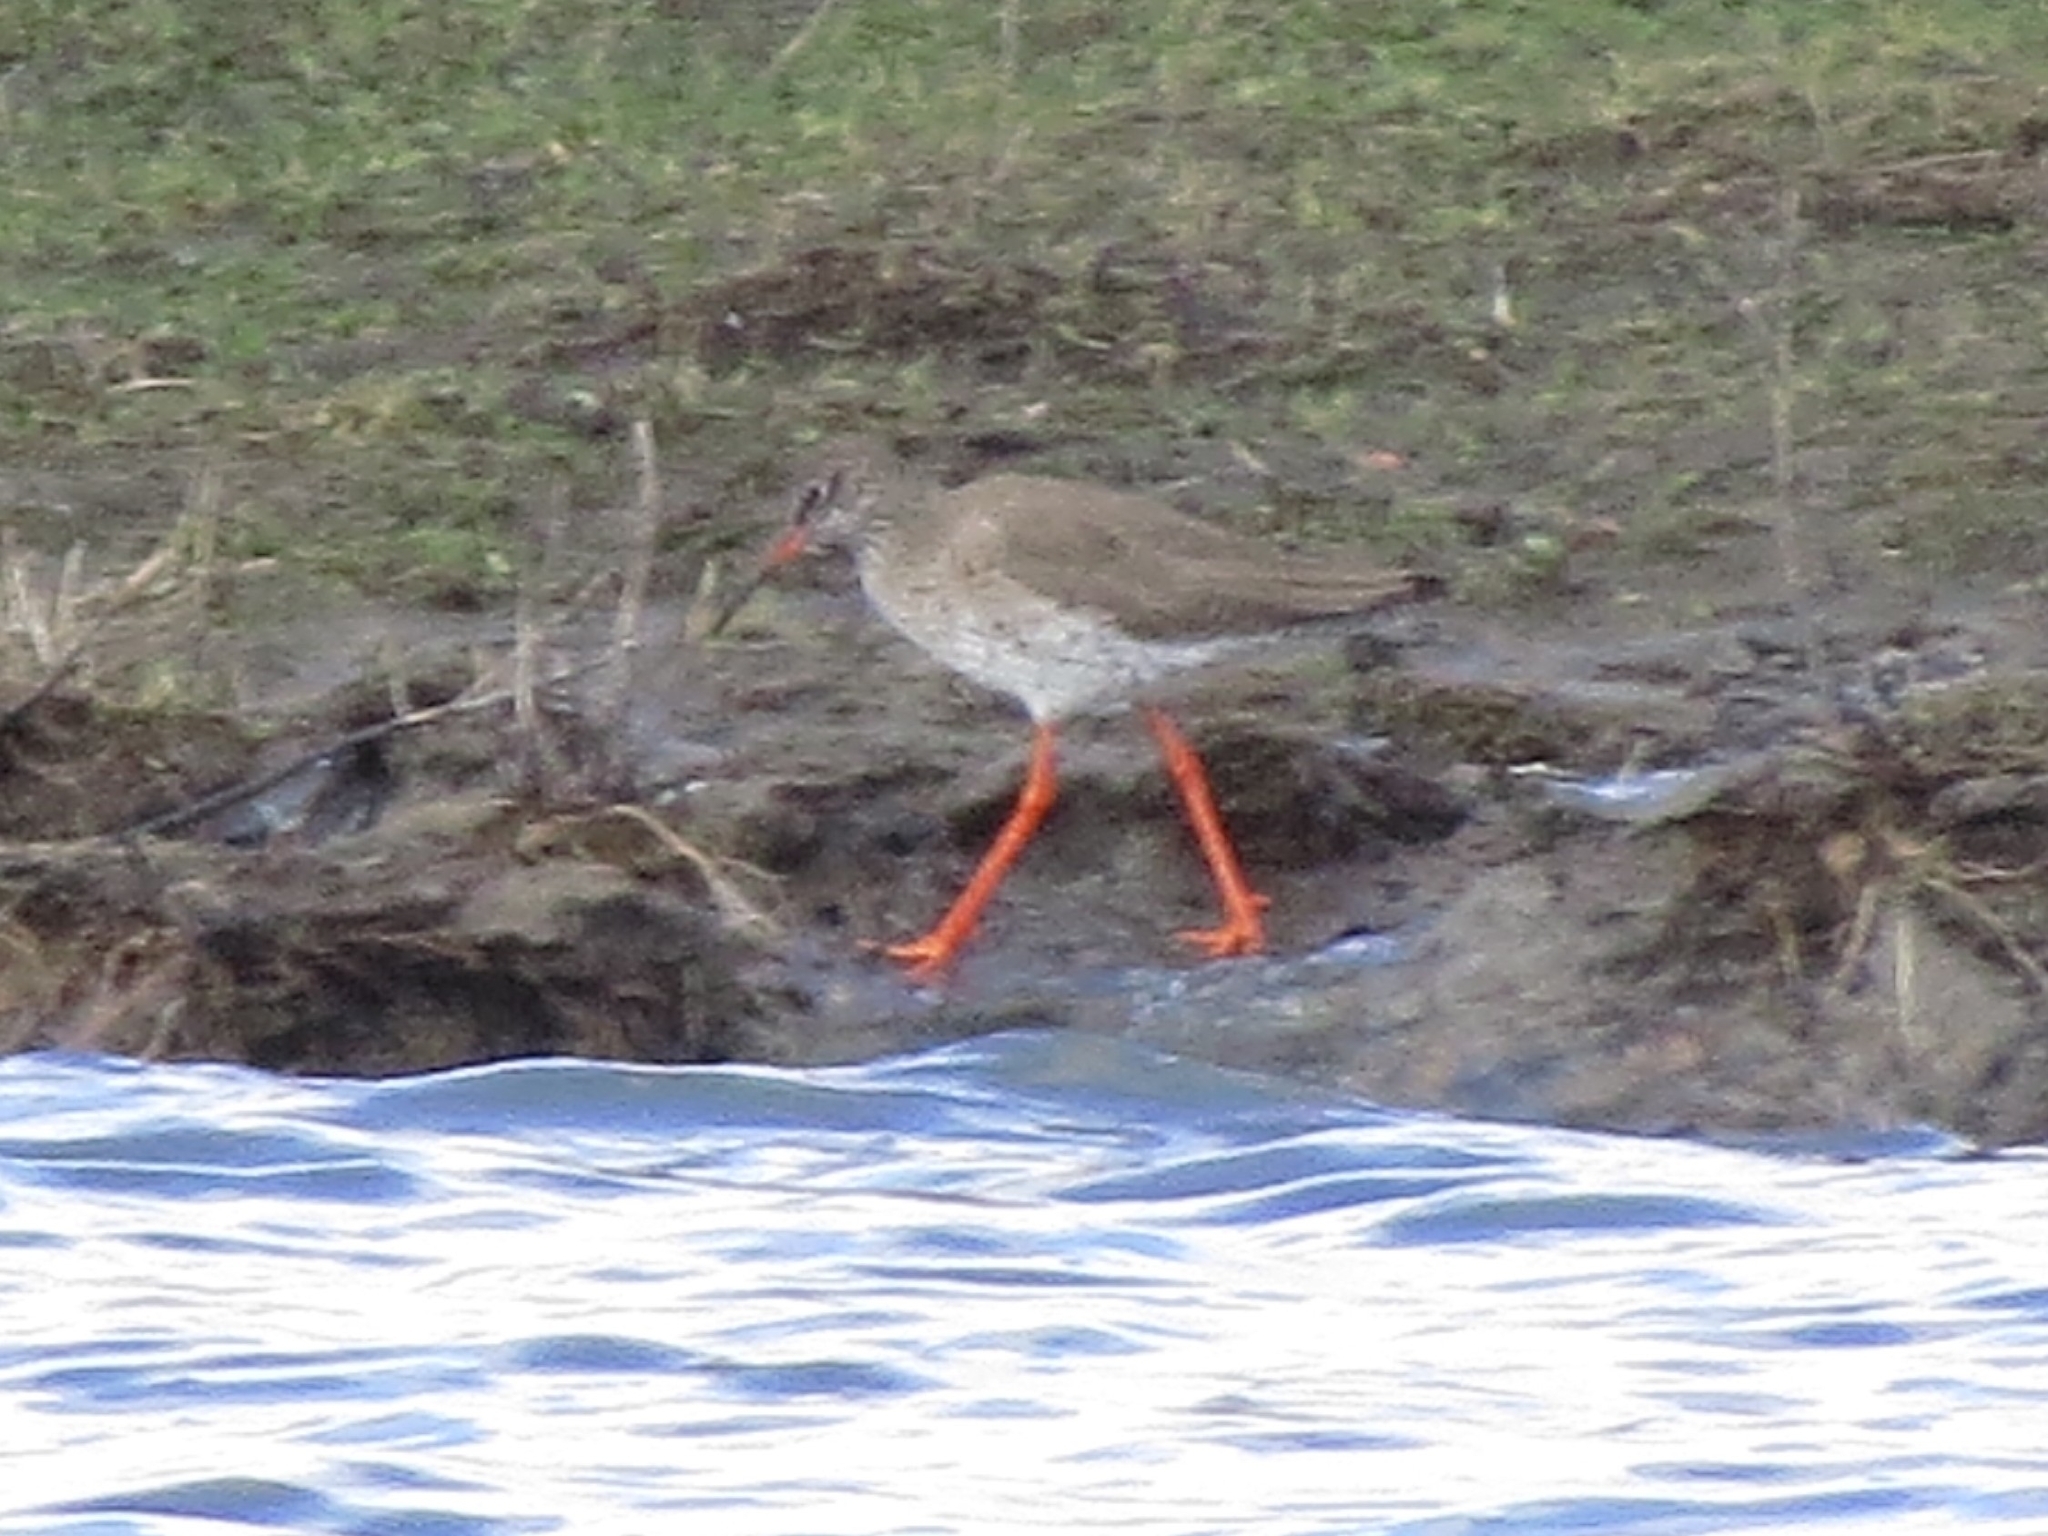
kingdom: Animalia
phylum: Chordata
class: Aves
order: Charadriiformes
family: Scolopacidae
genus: Tringa
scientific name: Tringa totanus
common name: Common redshank
